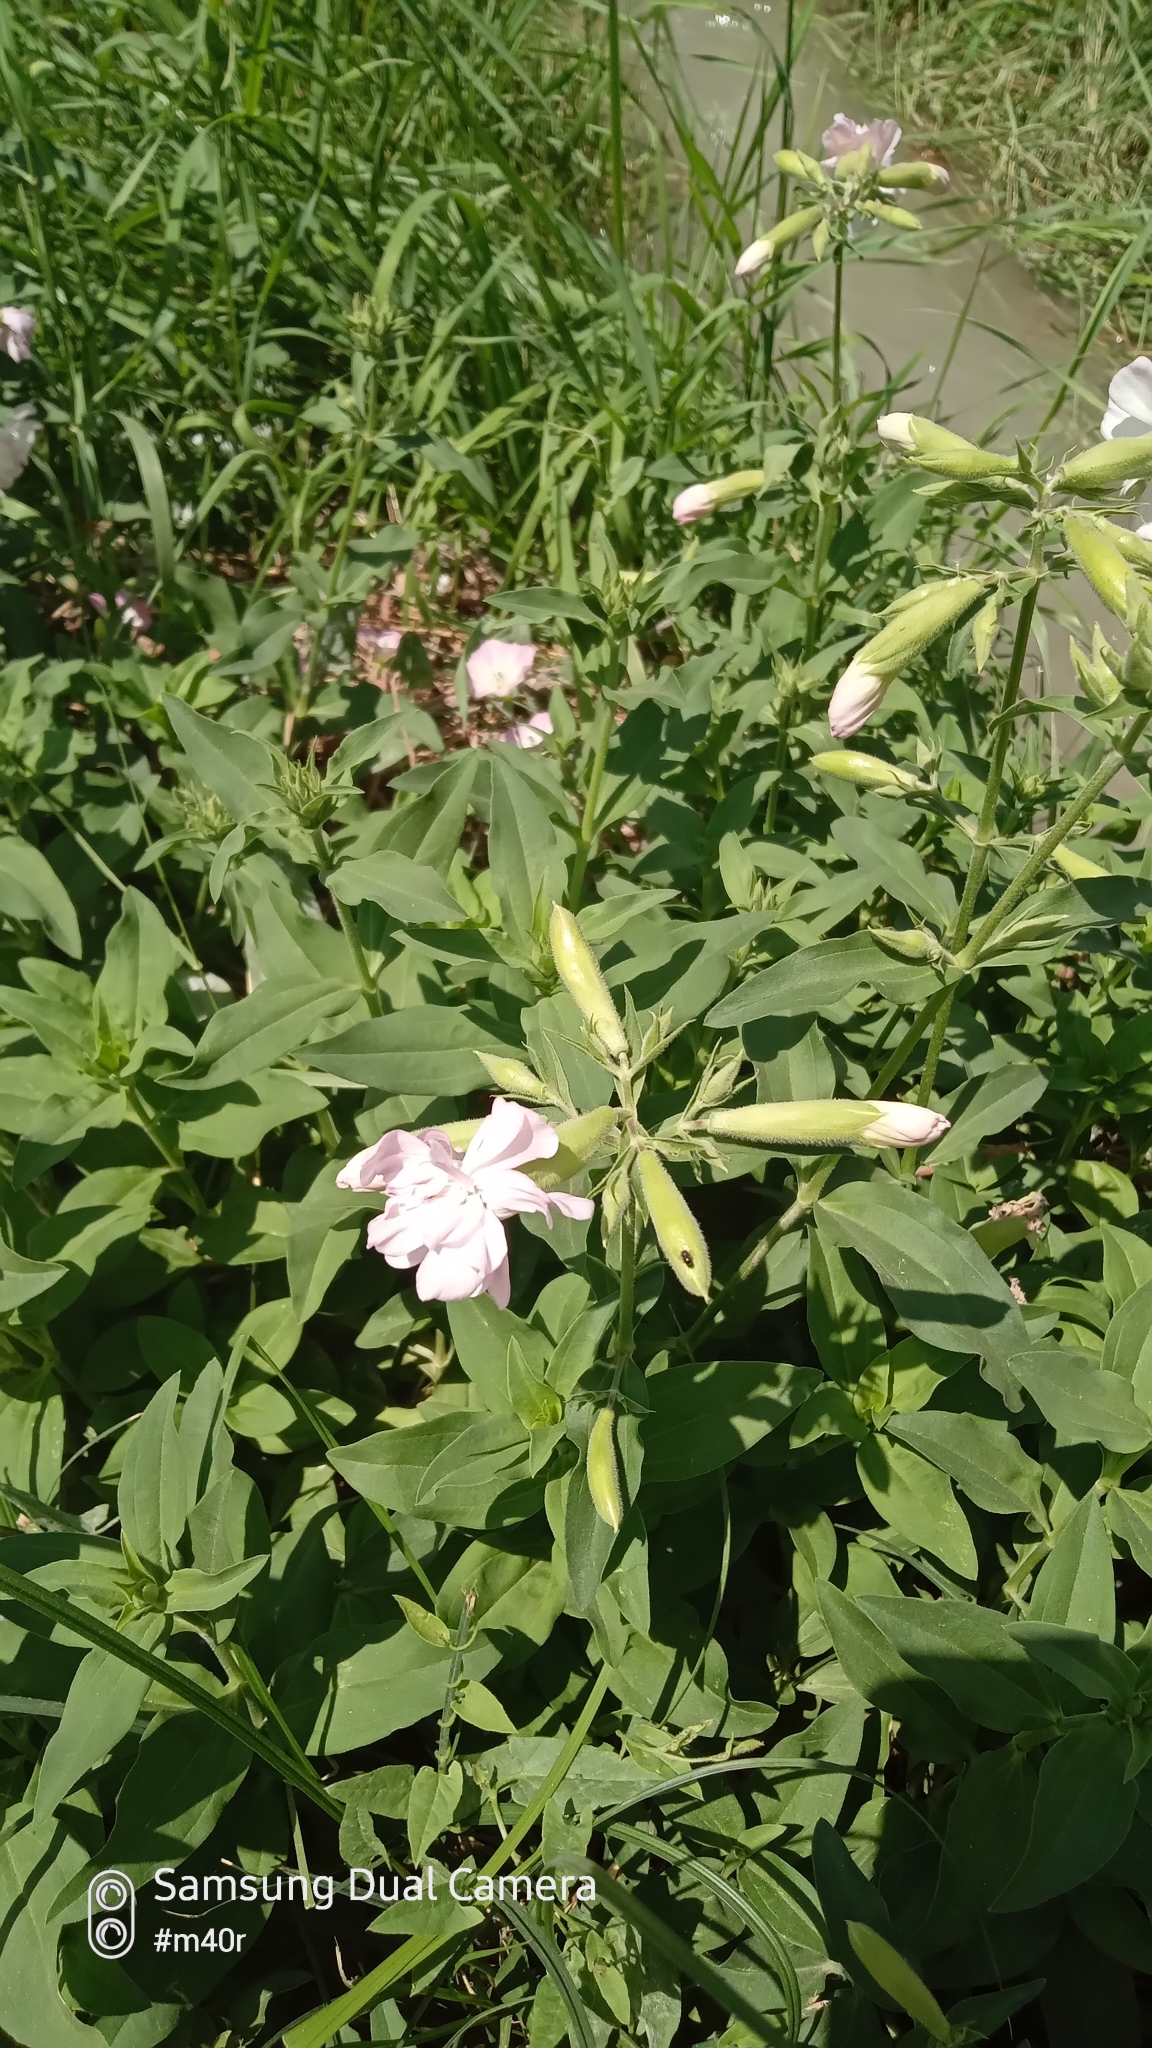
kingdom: Plantae
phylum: Tracheophyta
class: Magnoliopsida
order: Caryophyllales
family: Caryophyllaceae
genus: Saponaria
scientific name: Saponaria officinalis
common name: Soapwort
